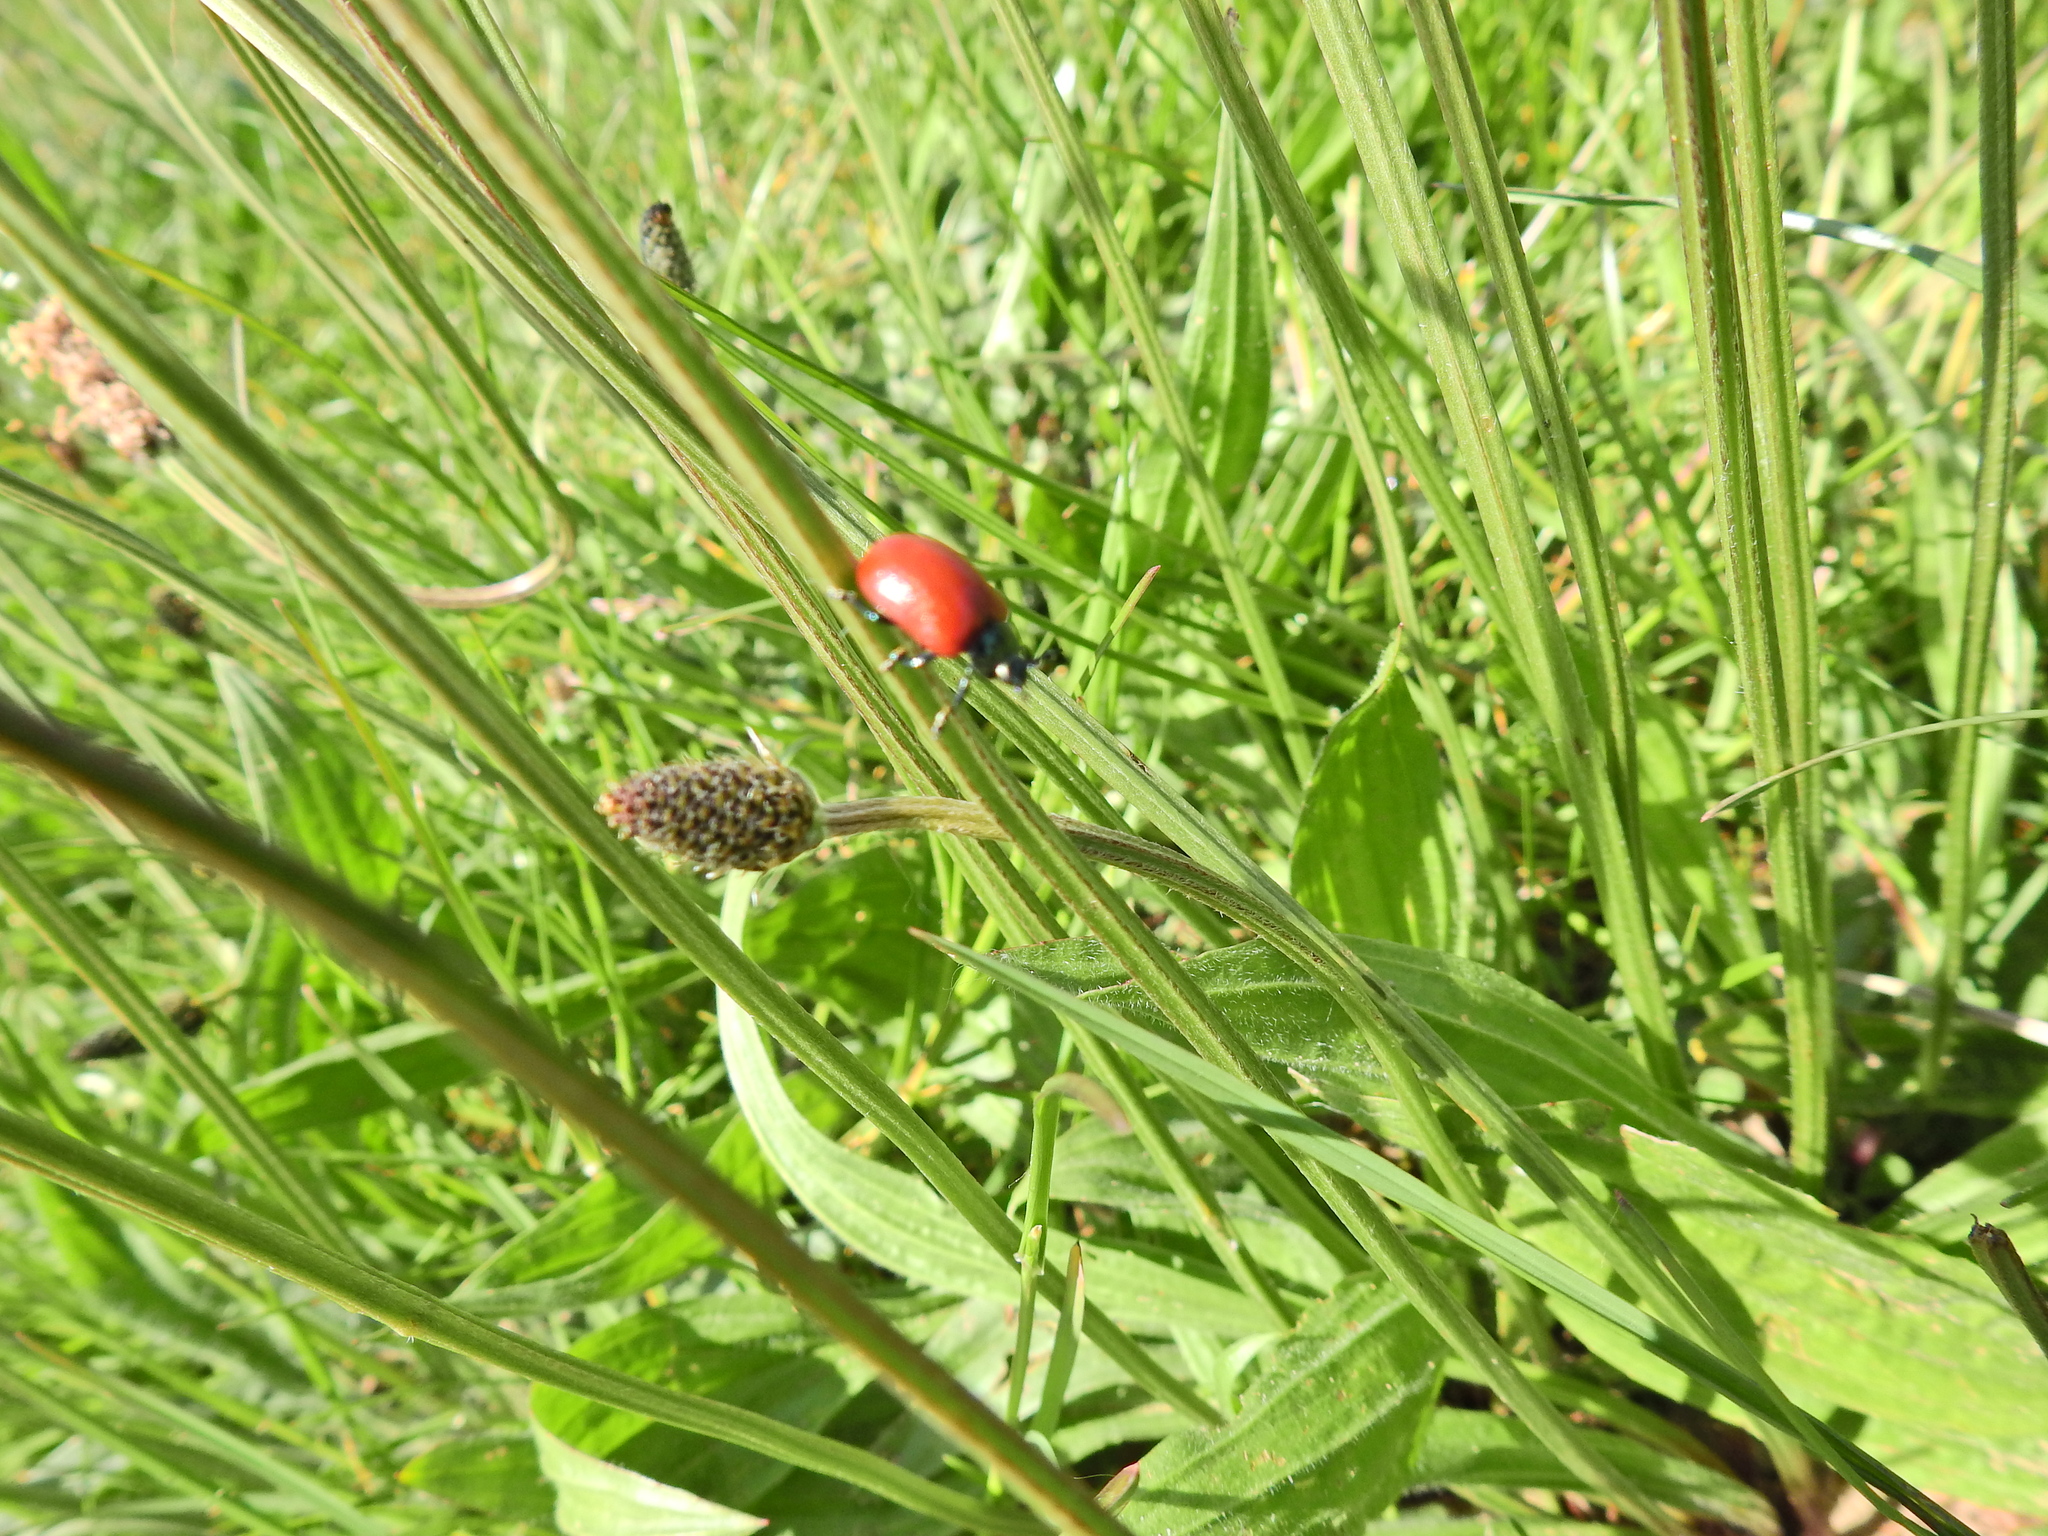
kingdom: Animalia
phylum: Arthropoda
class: Insecta
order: Coleoptera
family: Chrysomelidae
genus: Chrysomela
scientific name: Chrysomela populi
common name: Red poplar leaf beetle
